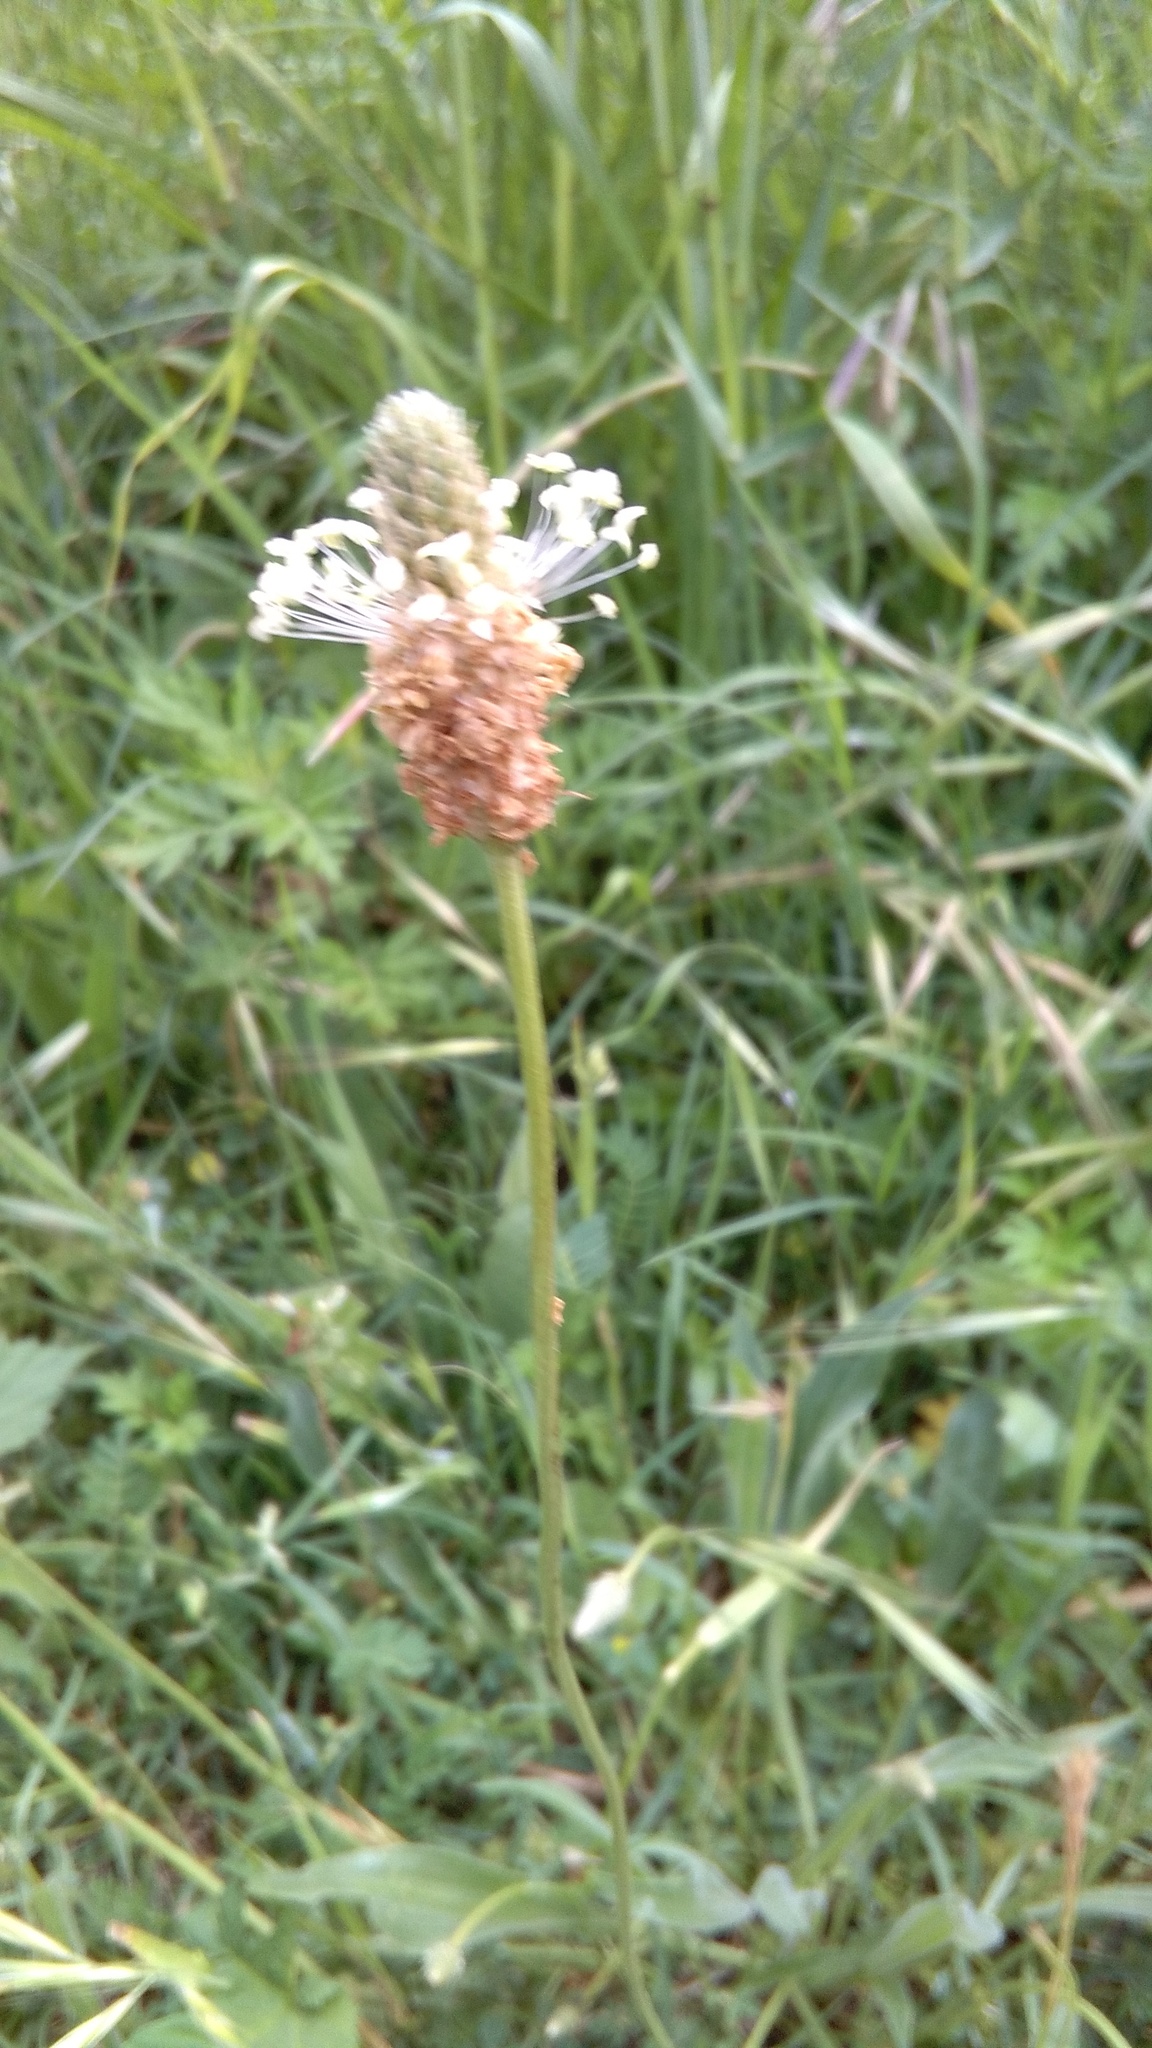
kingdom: Plantae
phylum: Tracheophyta
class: Magnoliopsida
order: Lamiales
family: Plantaginaceae
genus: Plantago
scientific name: Plantago lanceolata
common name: Ribwort plantain
